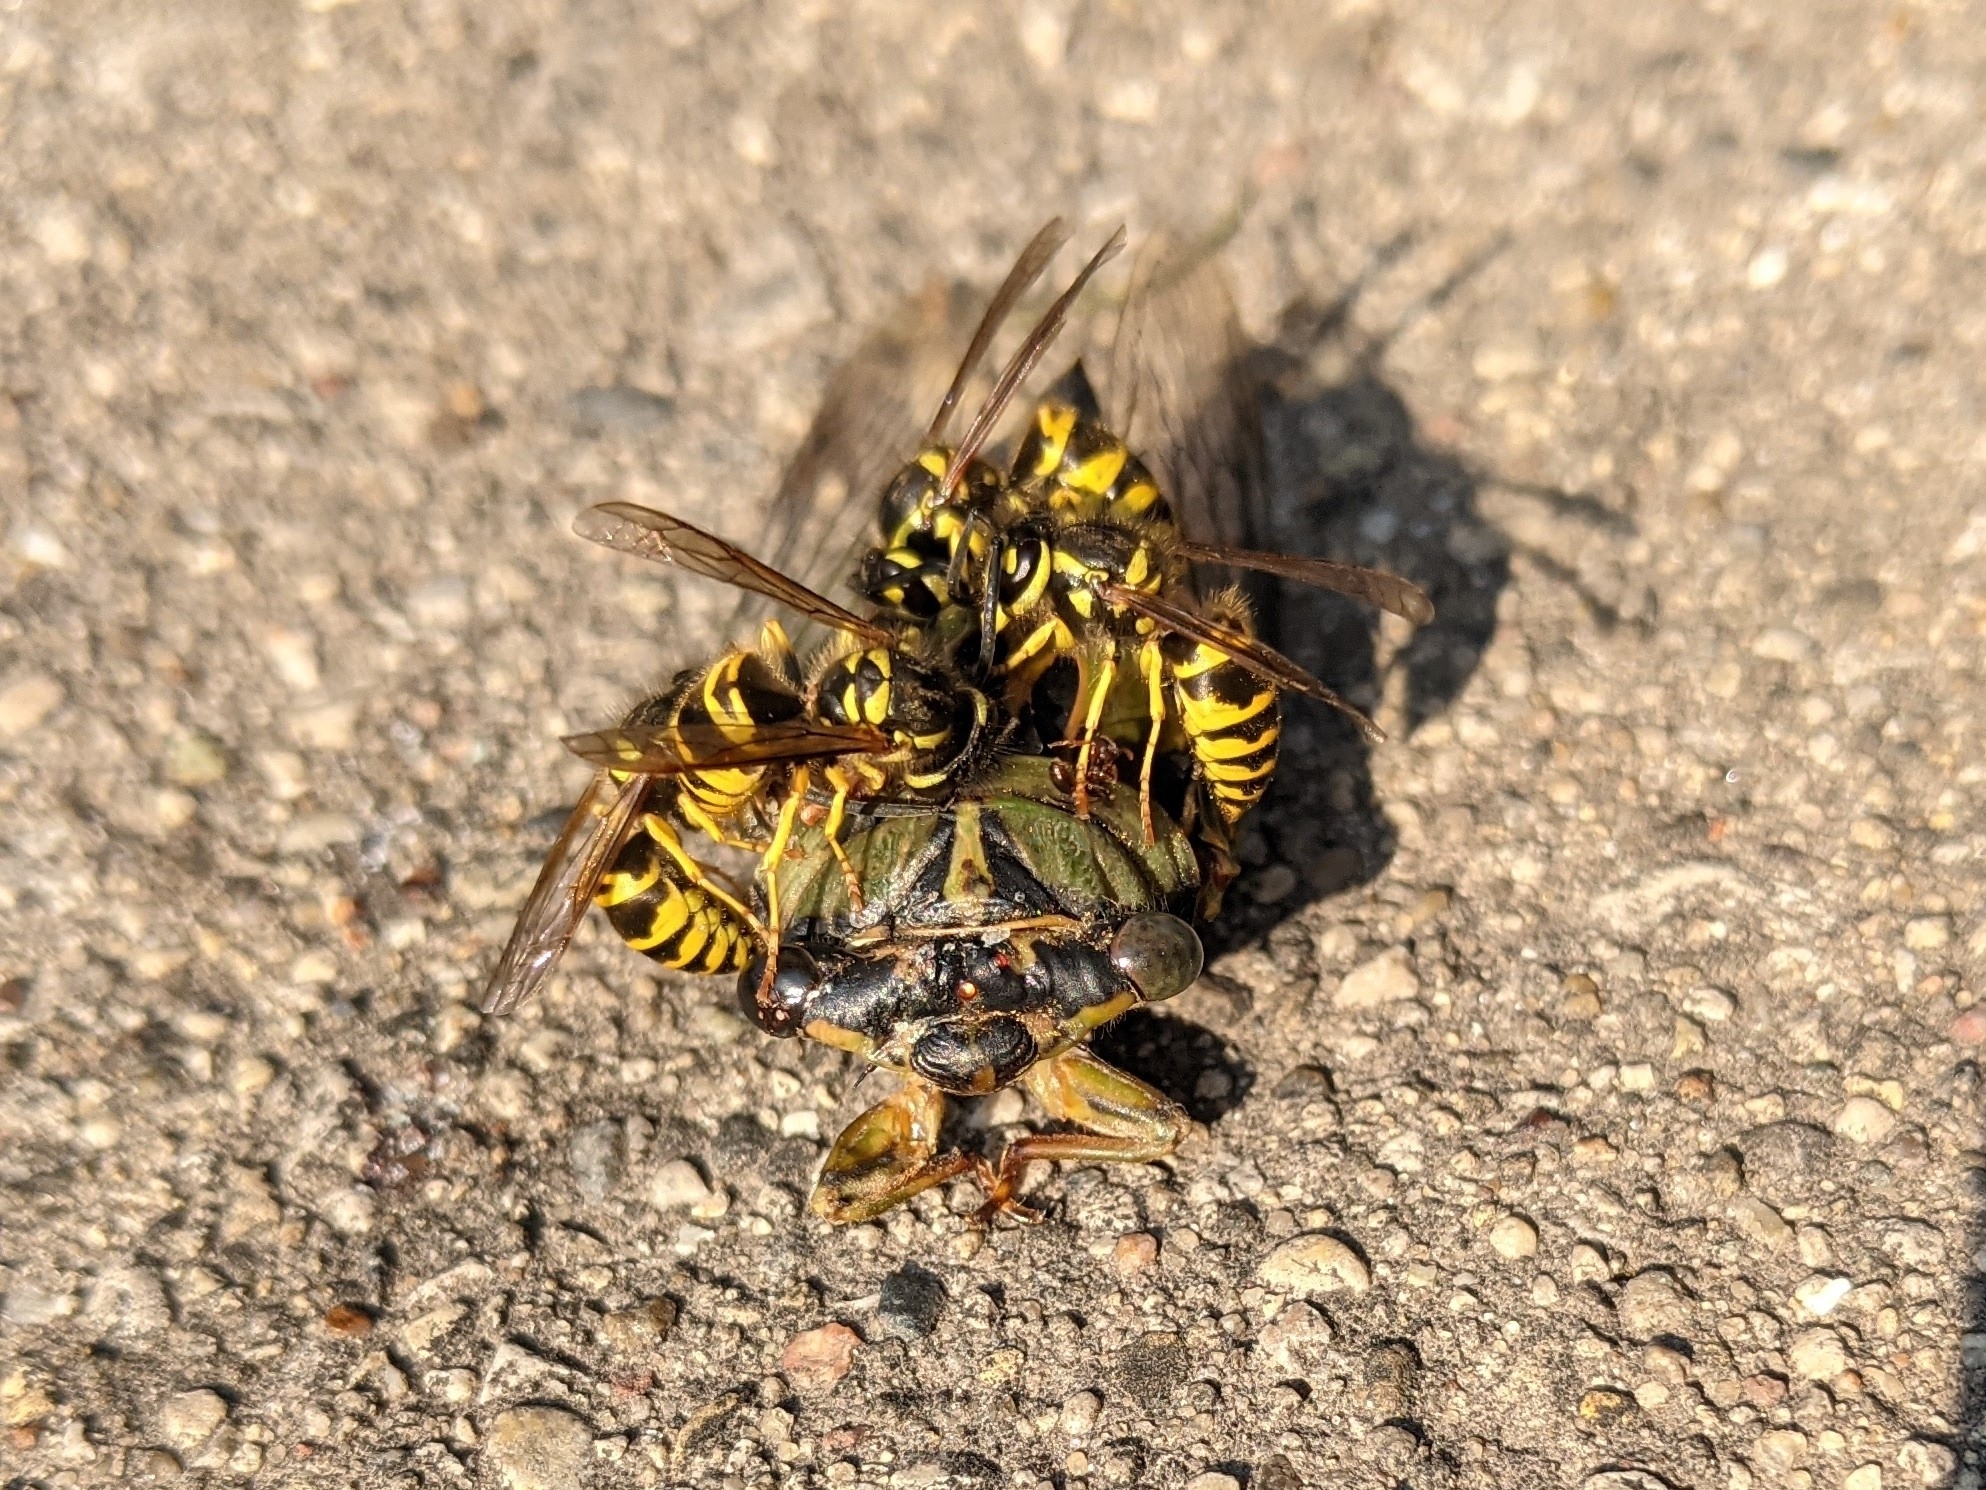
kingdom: Animalia
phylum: Arthropoda
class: Insecta
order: Hymenoptera
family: Vespidae
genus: Vespula
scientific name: Vespula maculifrons
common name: Eastern yellowjacket
